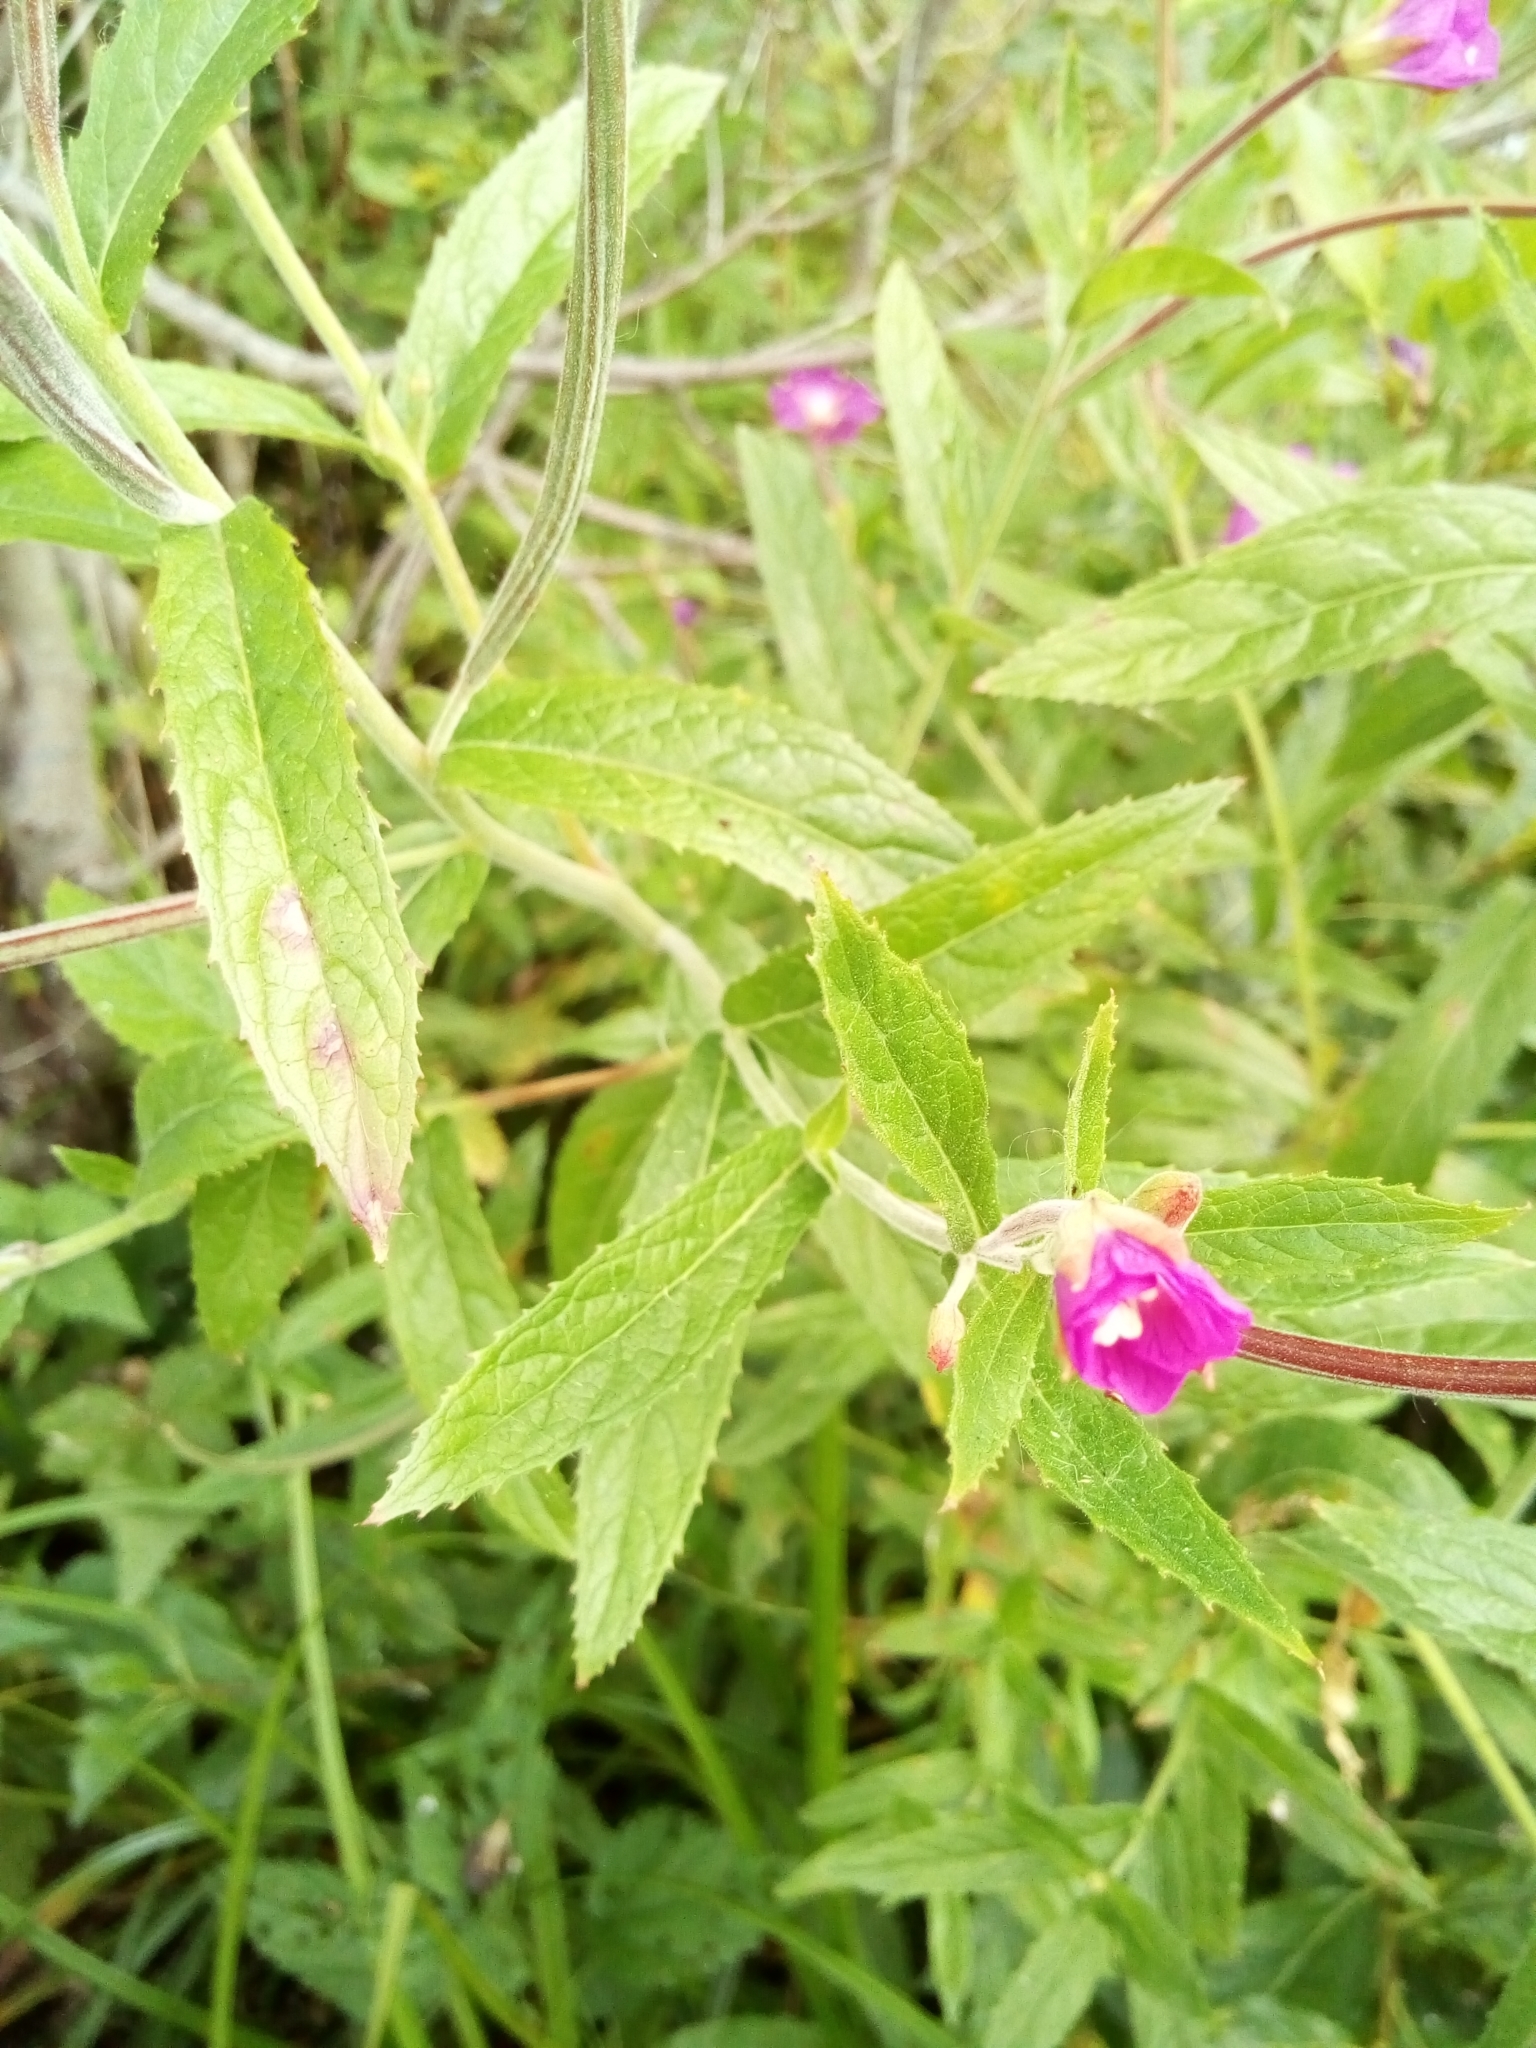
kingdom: Plantae
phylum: Tracheophyta
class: Magnoliopsida
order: Myrtales
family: Onagraceae
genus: Epilobium
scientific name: Epilobium hirsutum
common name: Great willowherb
